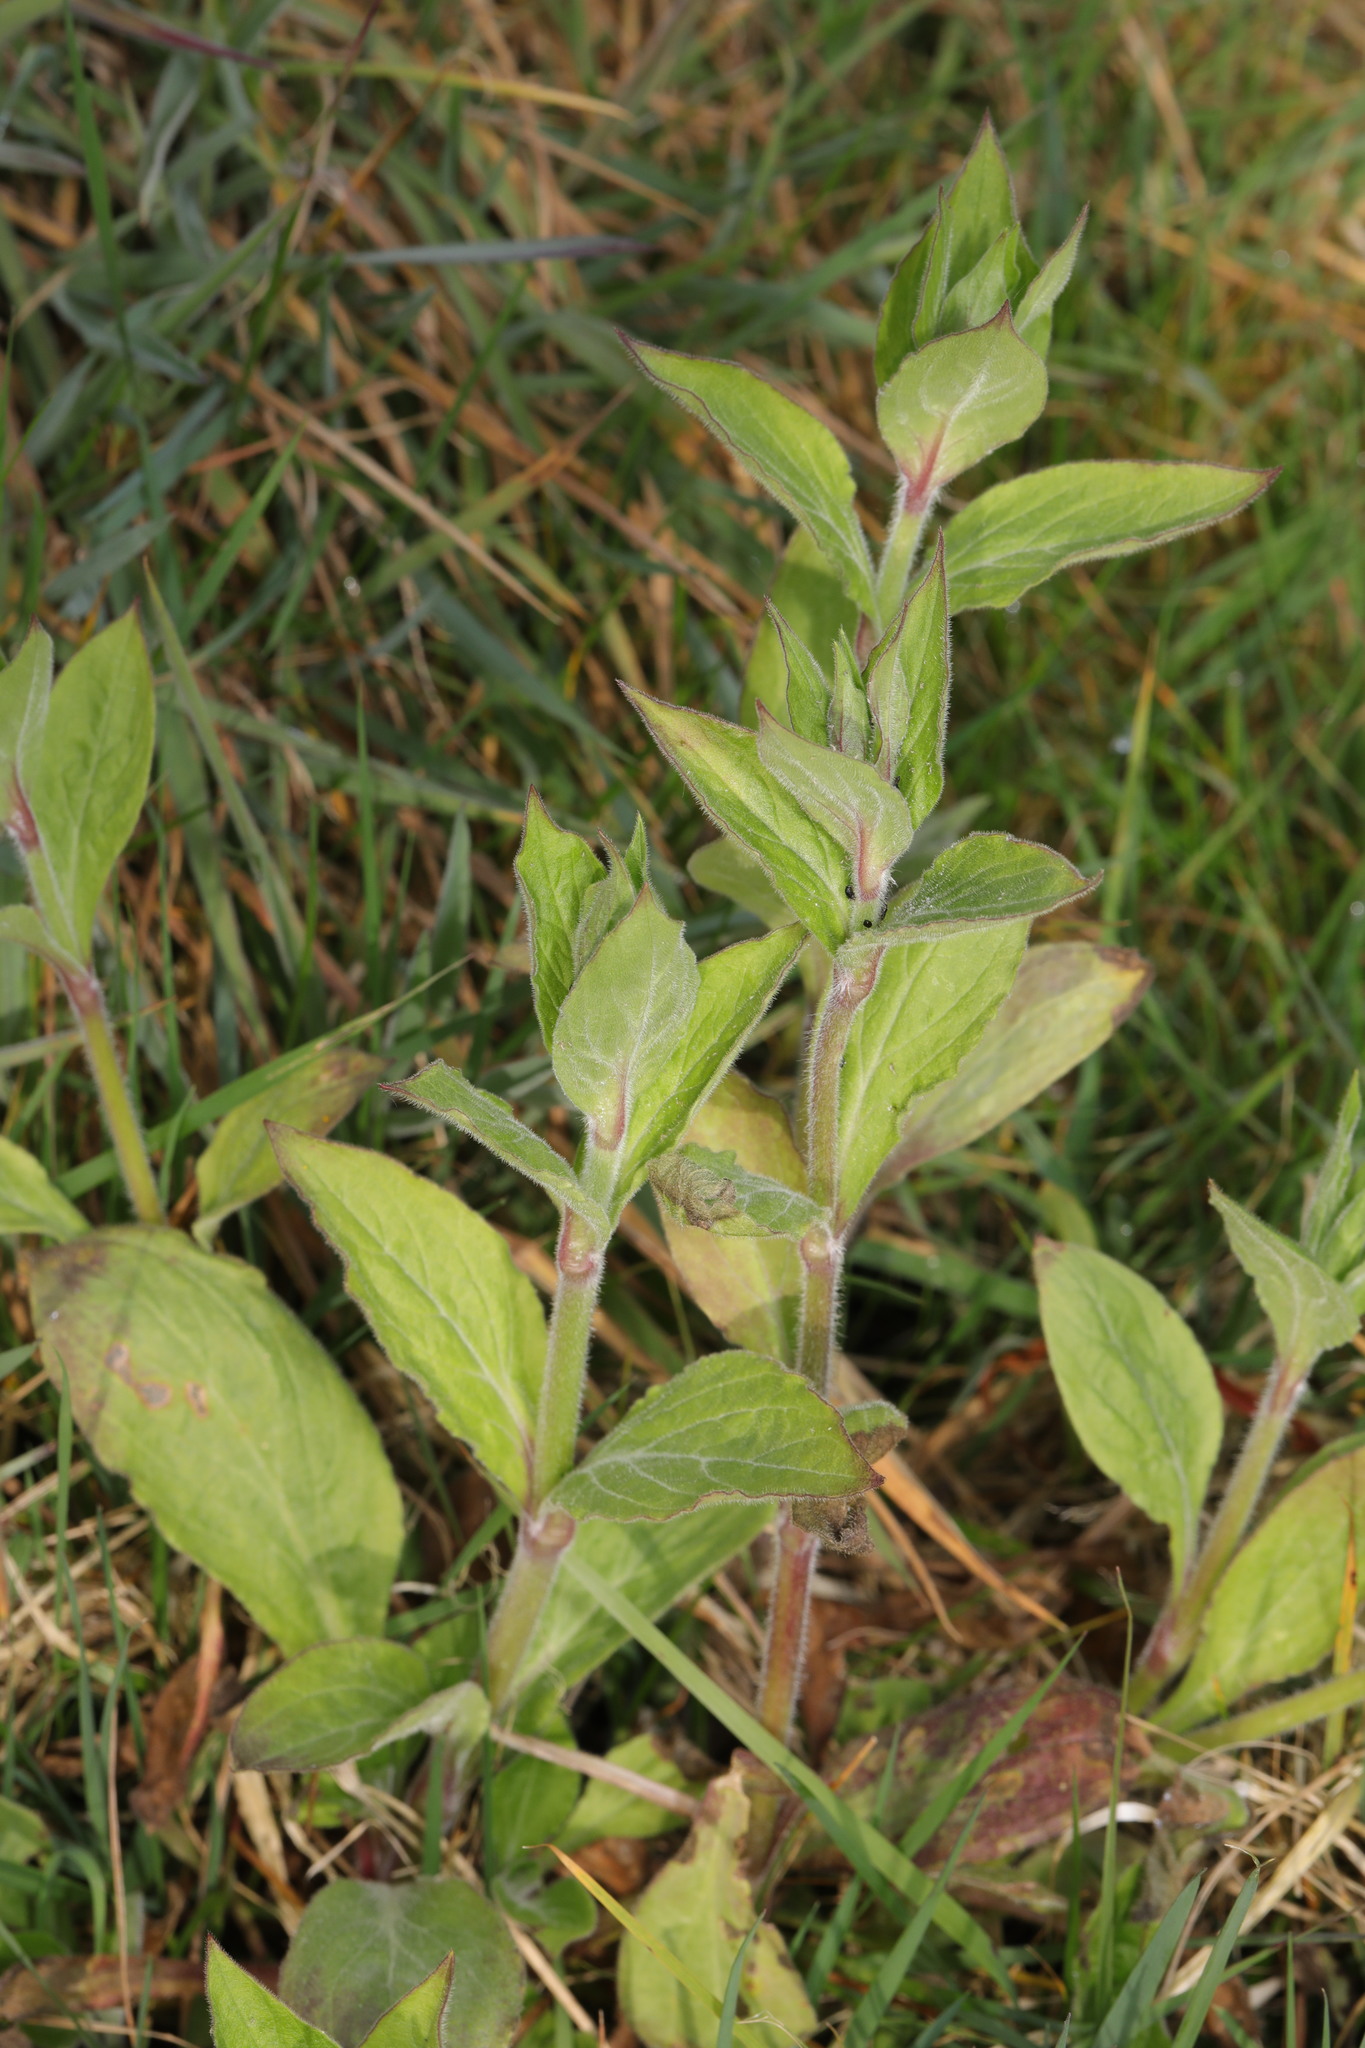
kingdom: Plantae
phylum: Tracheophyta
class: Magnoliopsida
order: Caryophyllales
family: Caryophyllaceae
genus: Silene
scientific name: Silene dioica
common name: Red campion
